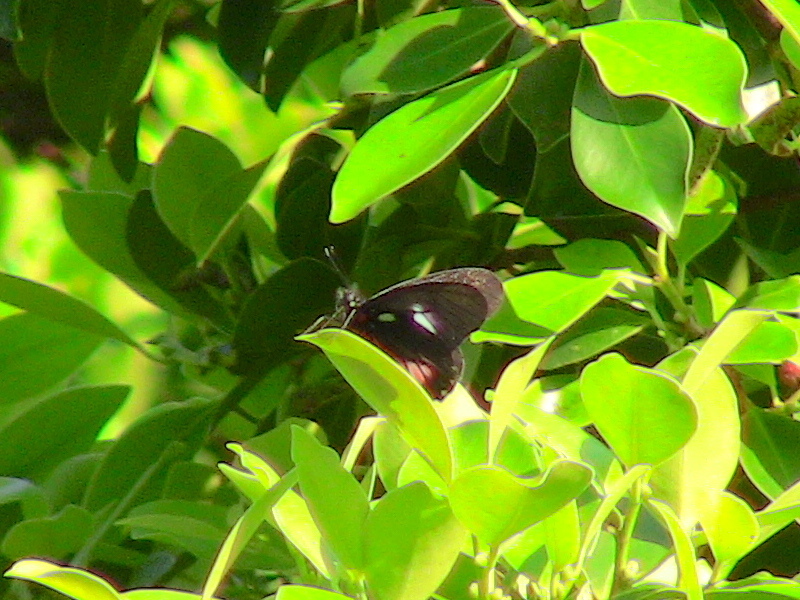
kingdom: Animalia
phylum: Arthropoda
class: Insecta
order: Lepidoptera
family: Pieridae
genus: Archonias
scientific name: Archonias brassolis
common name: Cattleheart white
